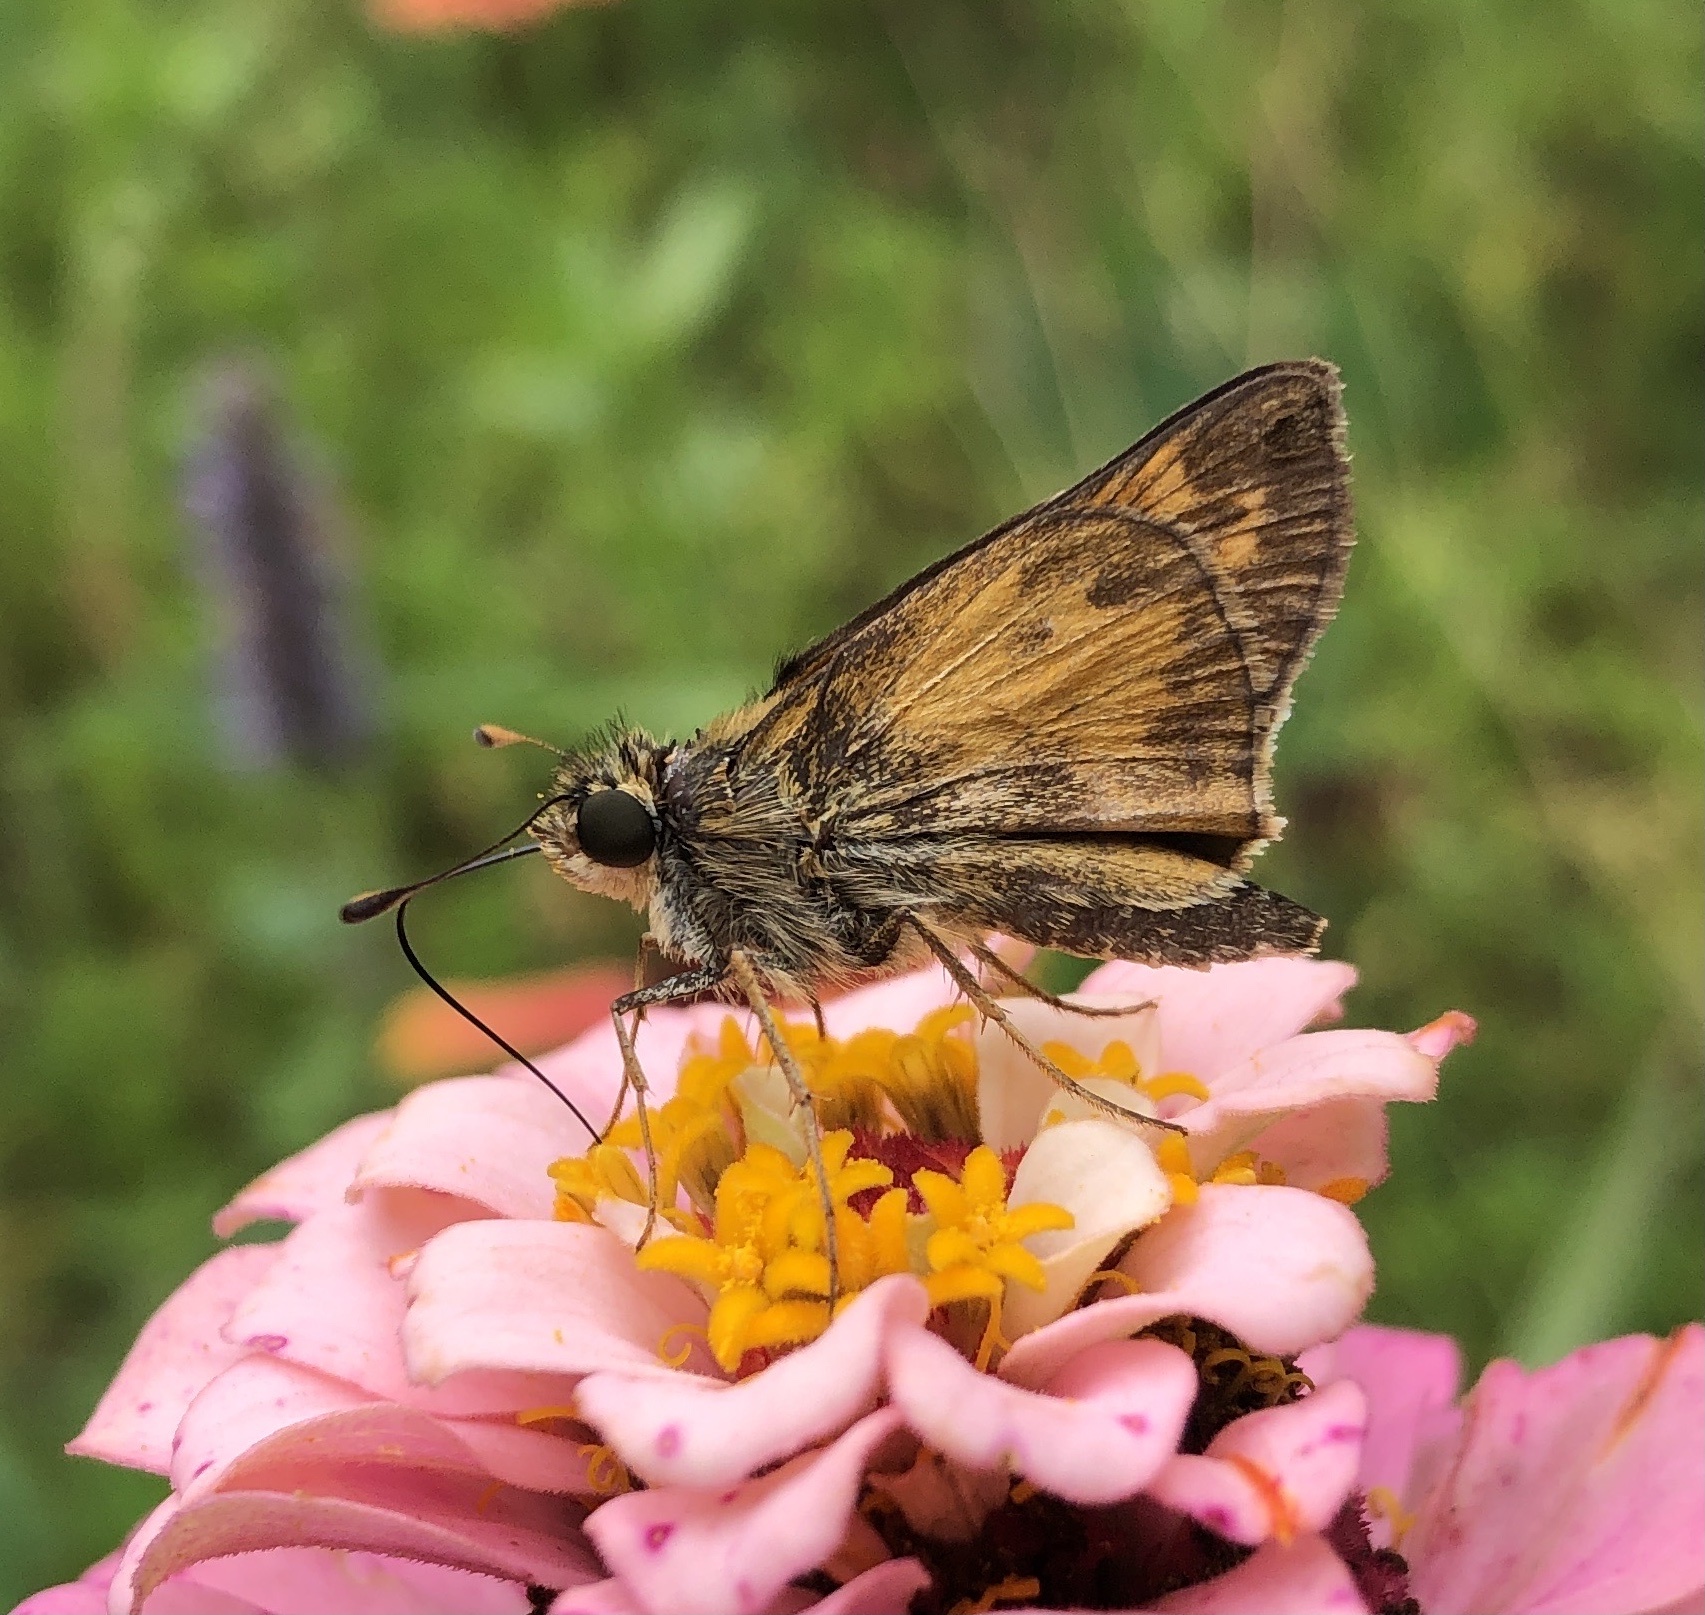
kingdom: Animalia
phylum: Arthropoda
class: Insecta
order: Lepidoptera
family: Hesperiidae
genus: Atalopedes
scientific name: Atalopedes
